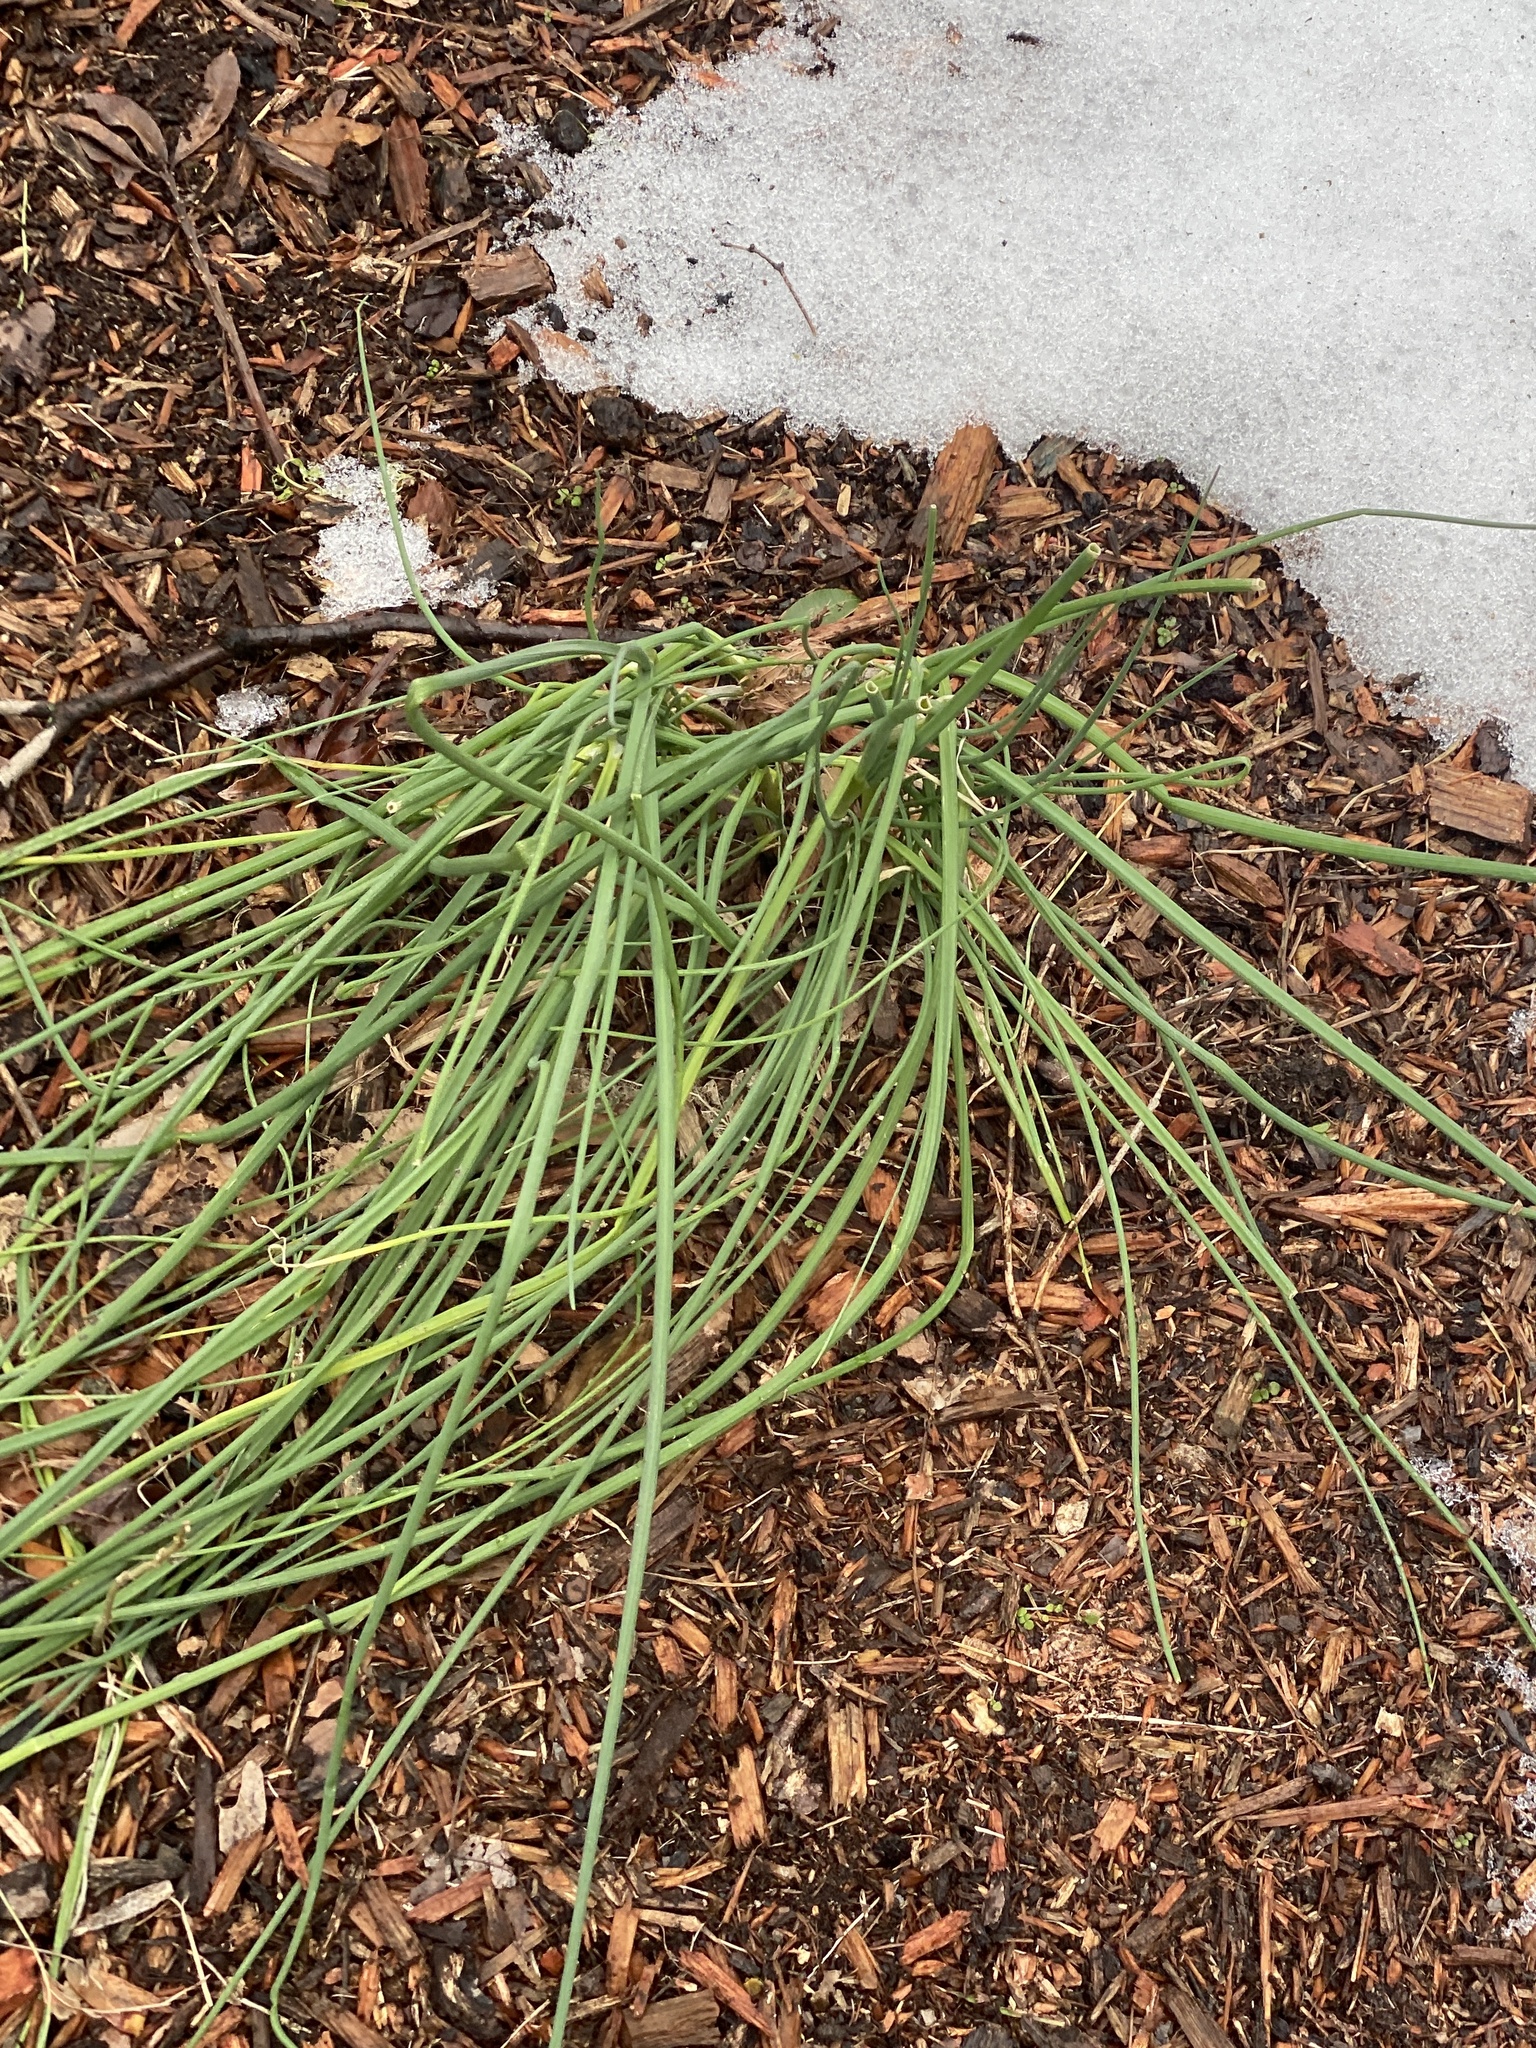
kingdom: Plantae
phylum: Tracheophyta
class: Liliopsida
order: Asparagales
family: Amaryllidaceae
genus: Allium
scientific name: Allium vineale
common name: Crow garlic
